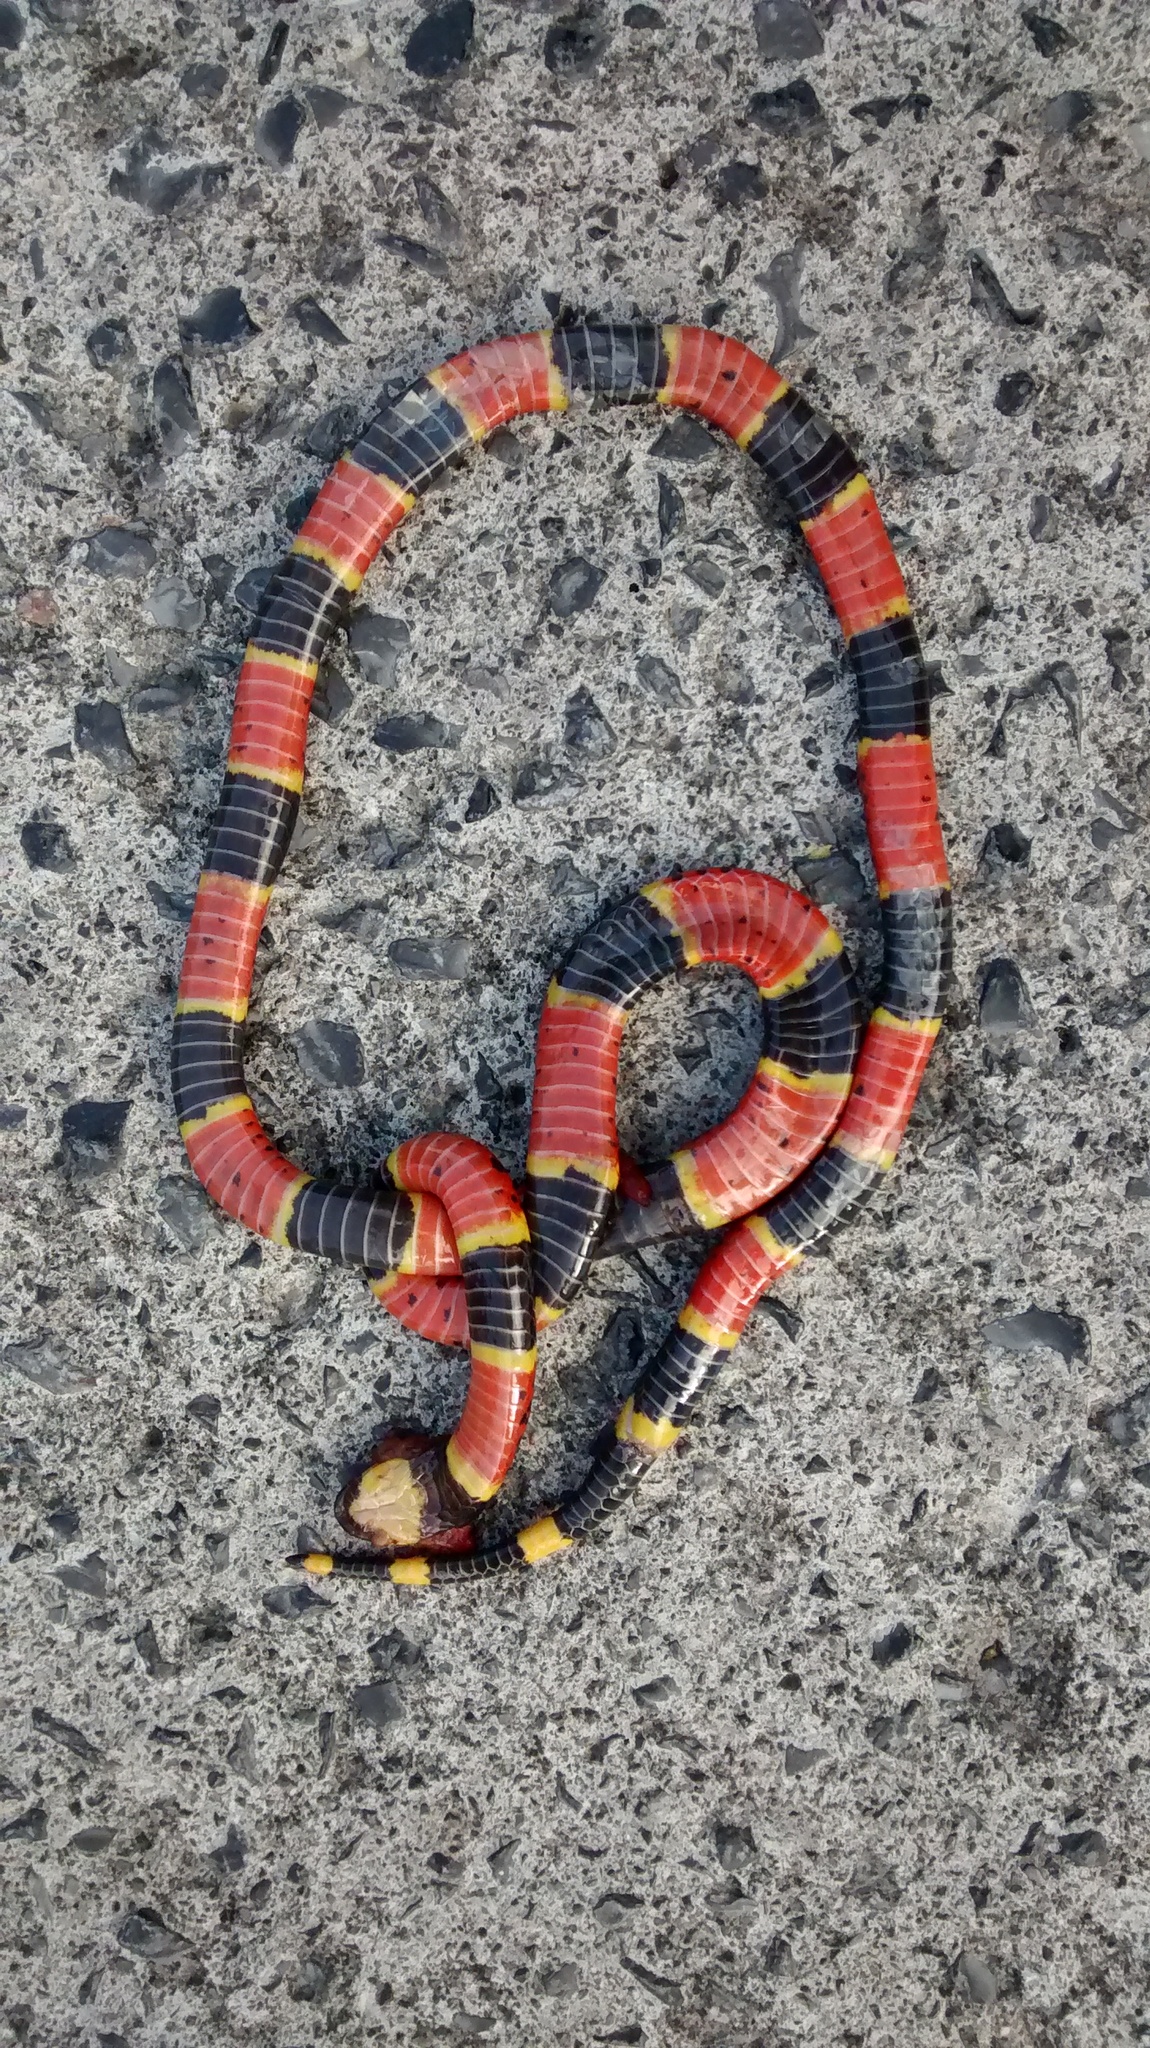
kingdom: Animalia
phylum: Chordata
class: Squamata
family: Elapidae
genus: Micrurus
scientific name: Micrurus tener
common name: Texas coral snake
